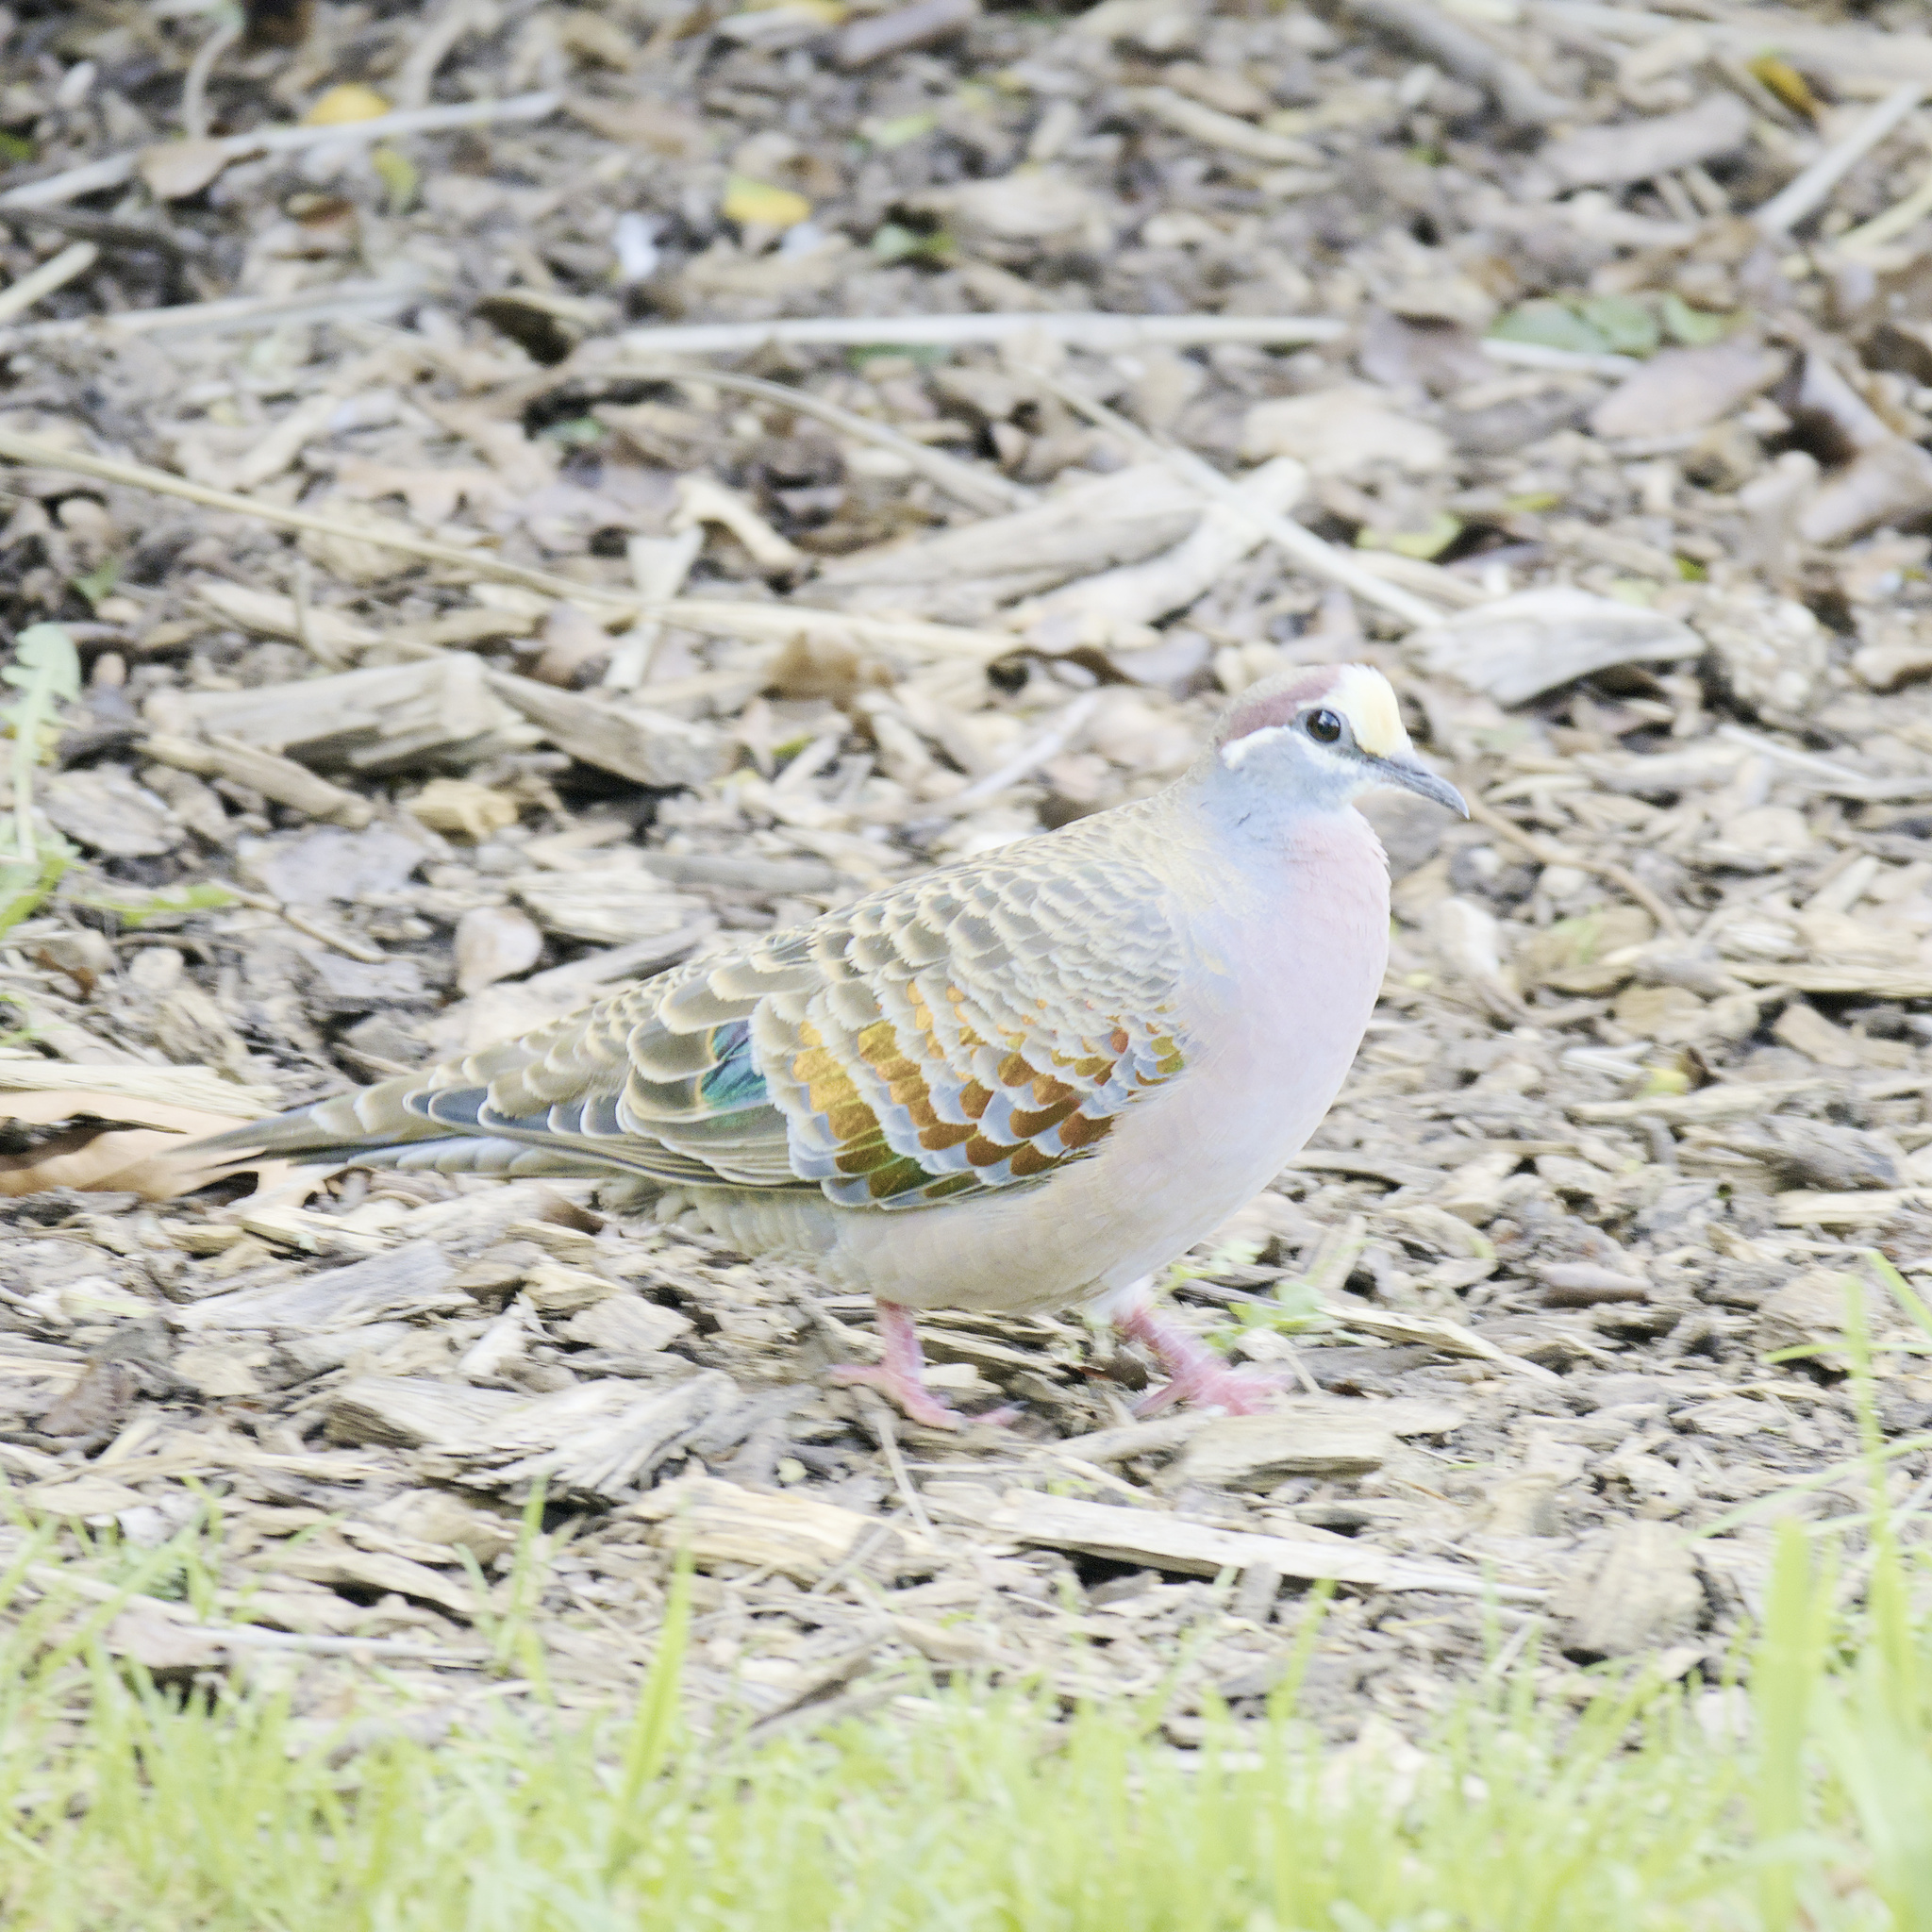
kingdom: Animalia
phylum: Chordata
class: Aves
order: Columbiformes
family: Columbidae
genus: Phaps
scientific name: Phaps chalcoptera
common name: Common bronzewing
